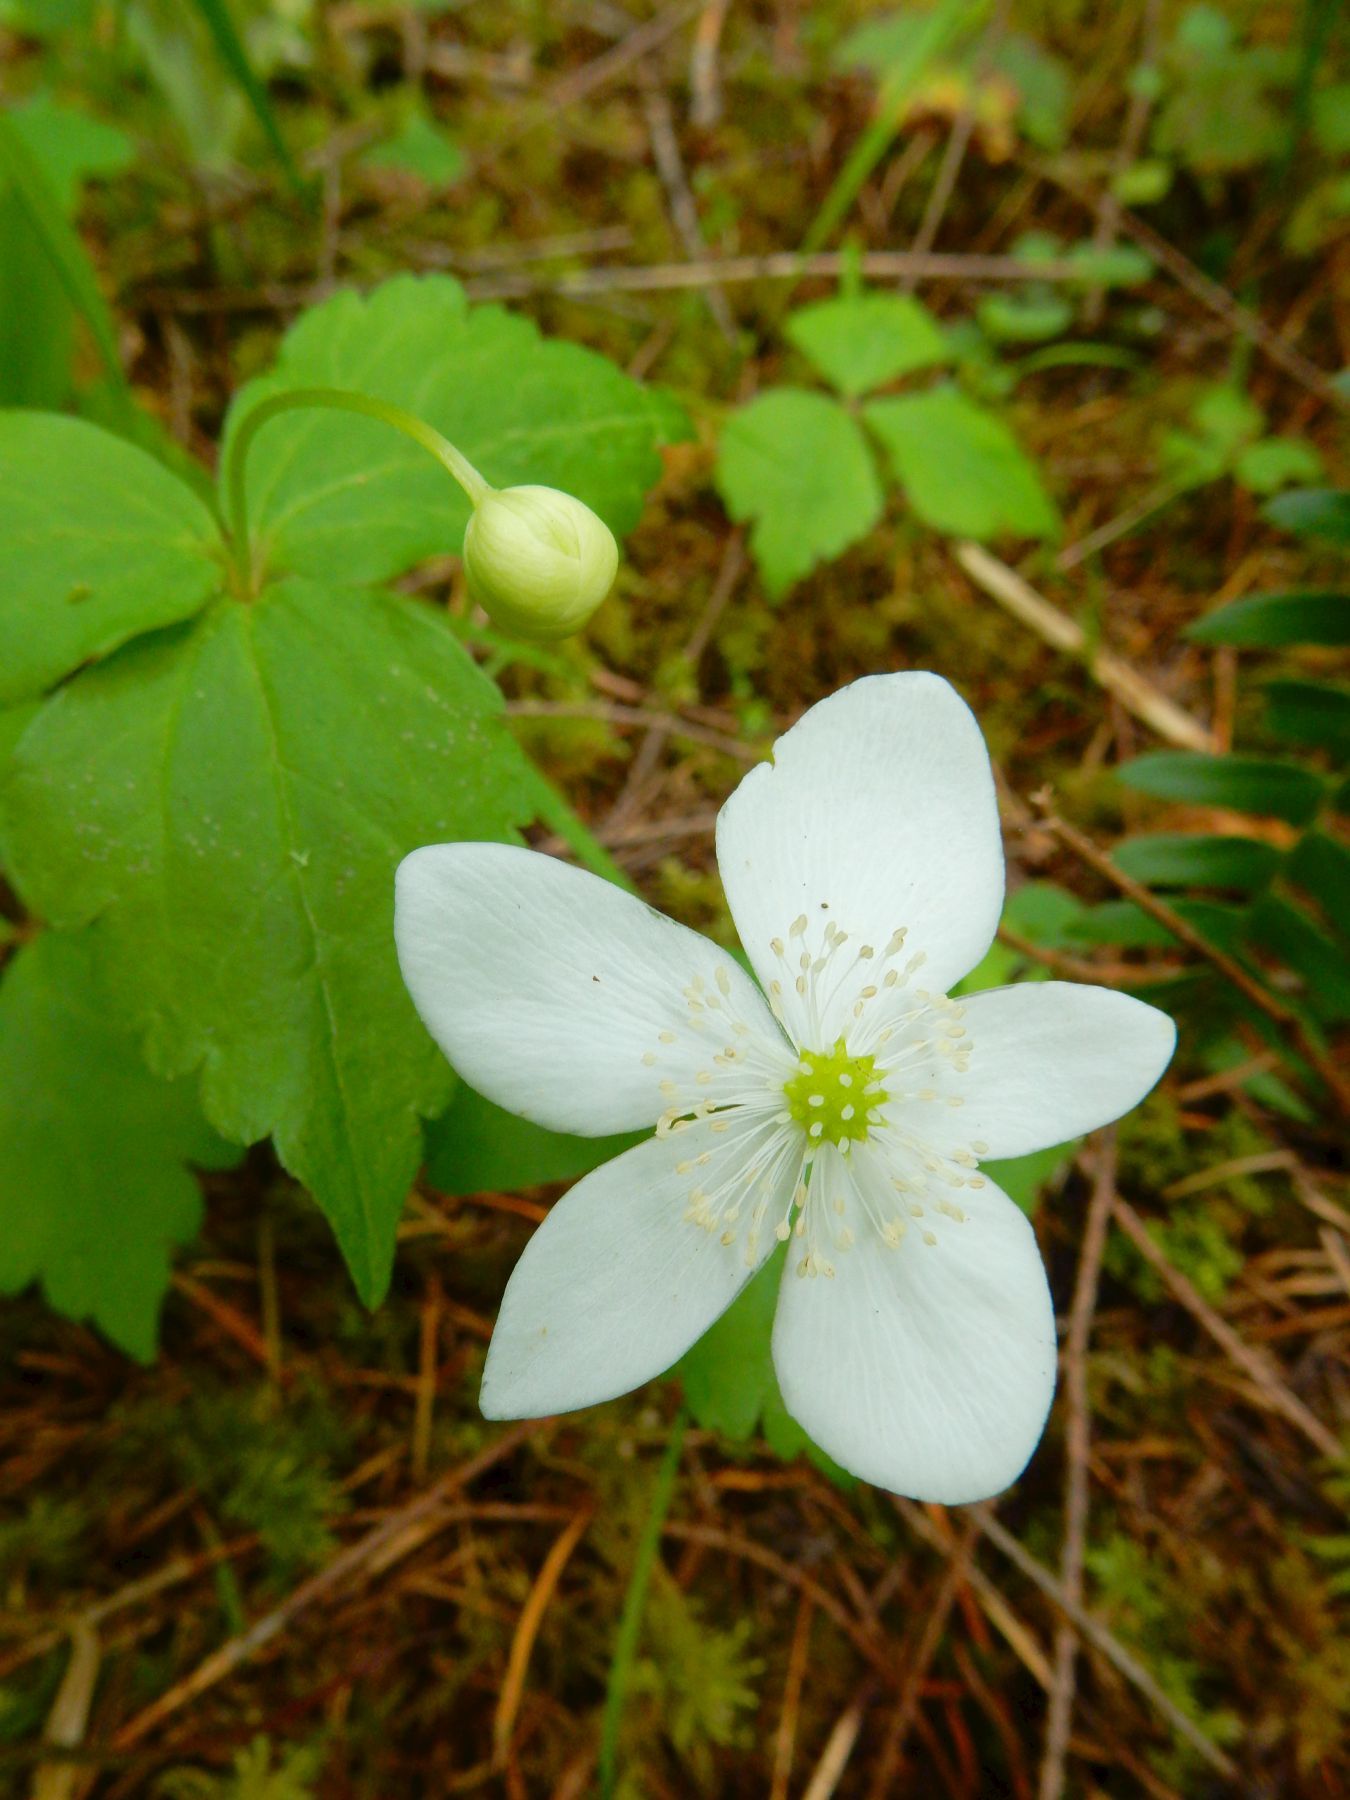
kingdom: Plantae
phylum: Tracheophyta
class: Magnoliopsida
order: Ranunculales
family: Ranunculaceae
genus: Anemonastrum
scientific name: Anemonastrum deltoideum
